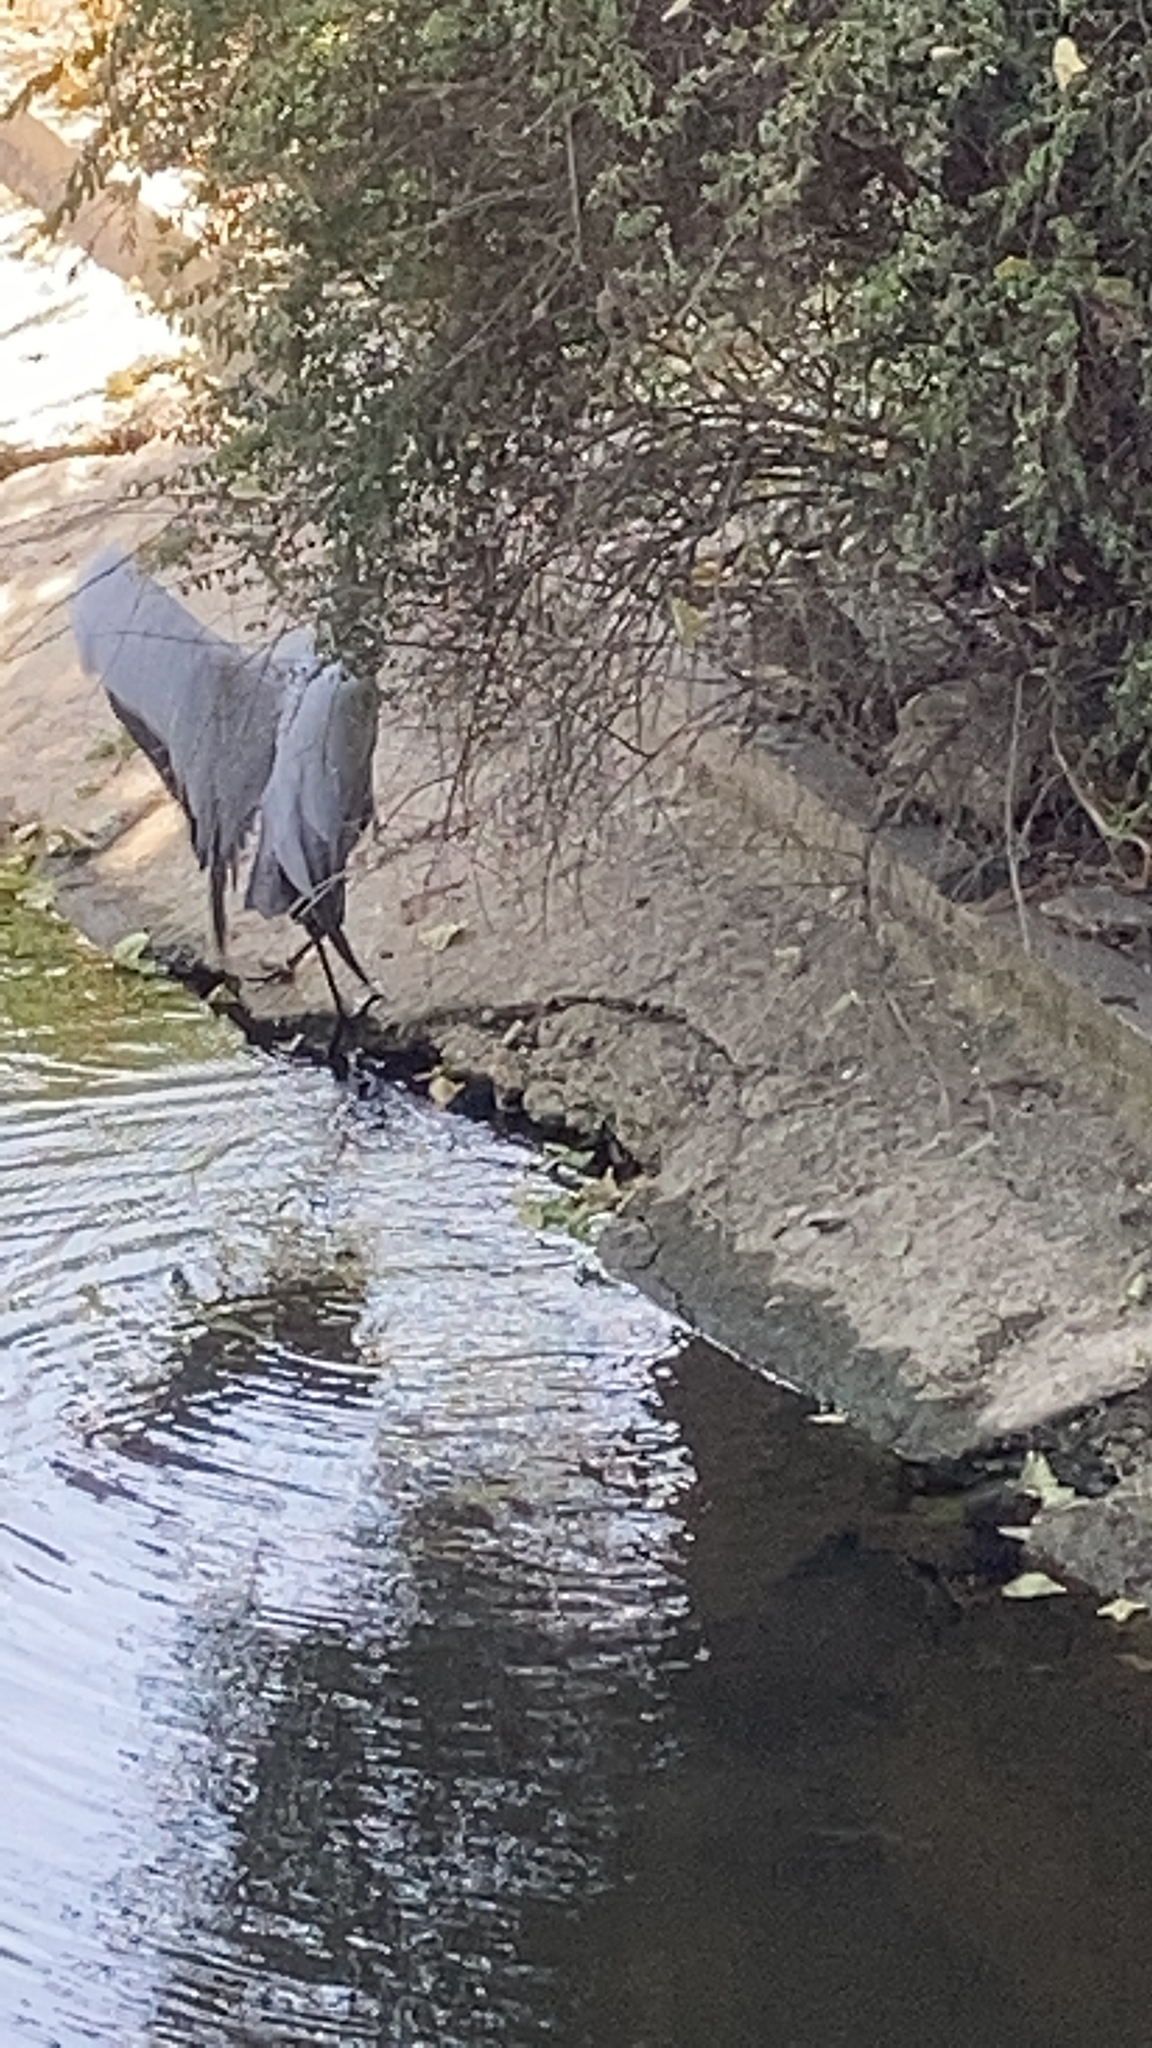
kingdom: Animalia
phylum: Chordata
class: Aves
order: Pelecaniformes
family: Ardeidae
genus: Ardea
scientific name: Ardea cinerea
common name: Grey heron
